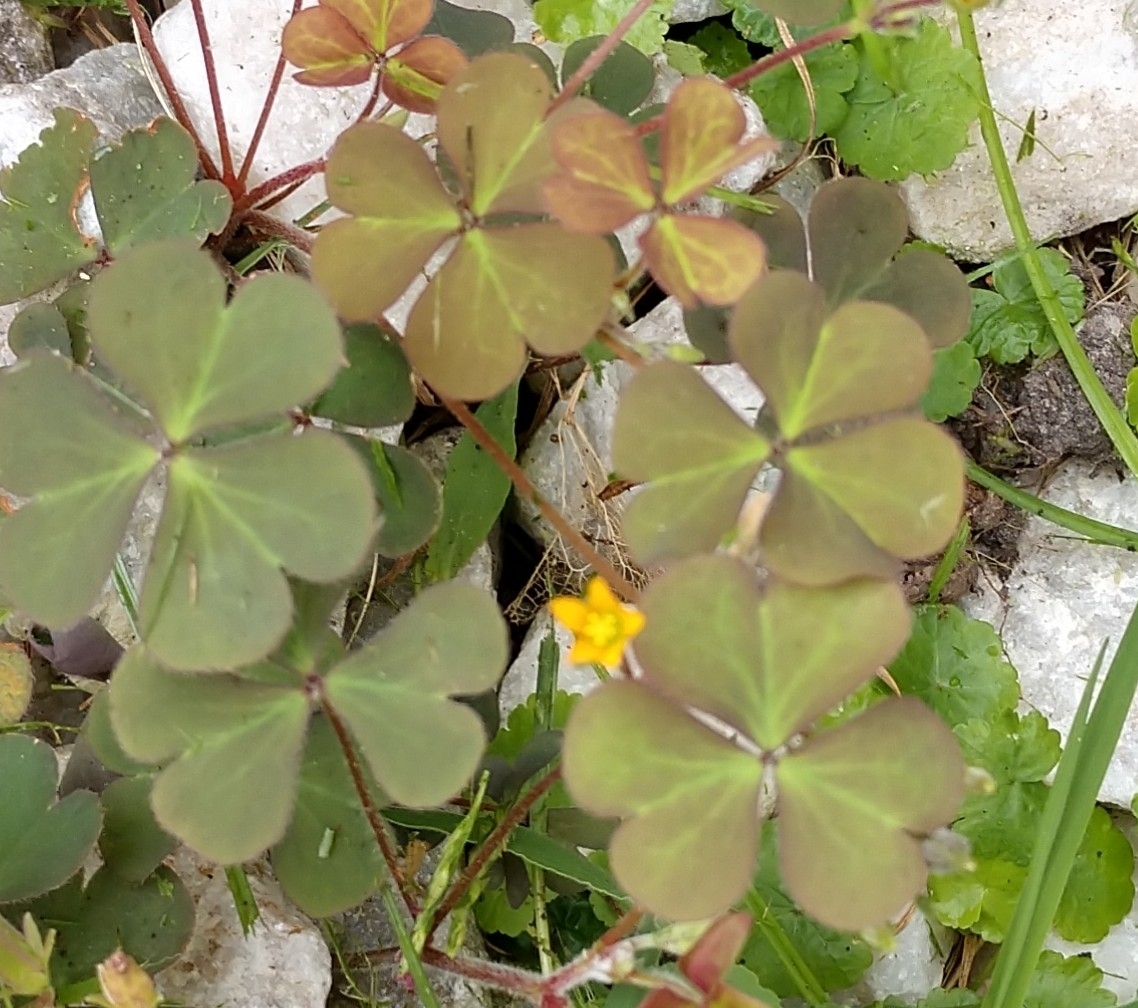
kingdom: Plantae
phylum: Tracheophyta
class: Magnoliopsida
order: Oxalidales
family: Oxalidaceae
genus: Oxalis
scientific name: Oxalis corniculata
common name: Procumbent yellow-sorrel
